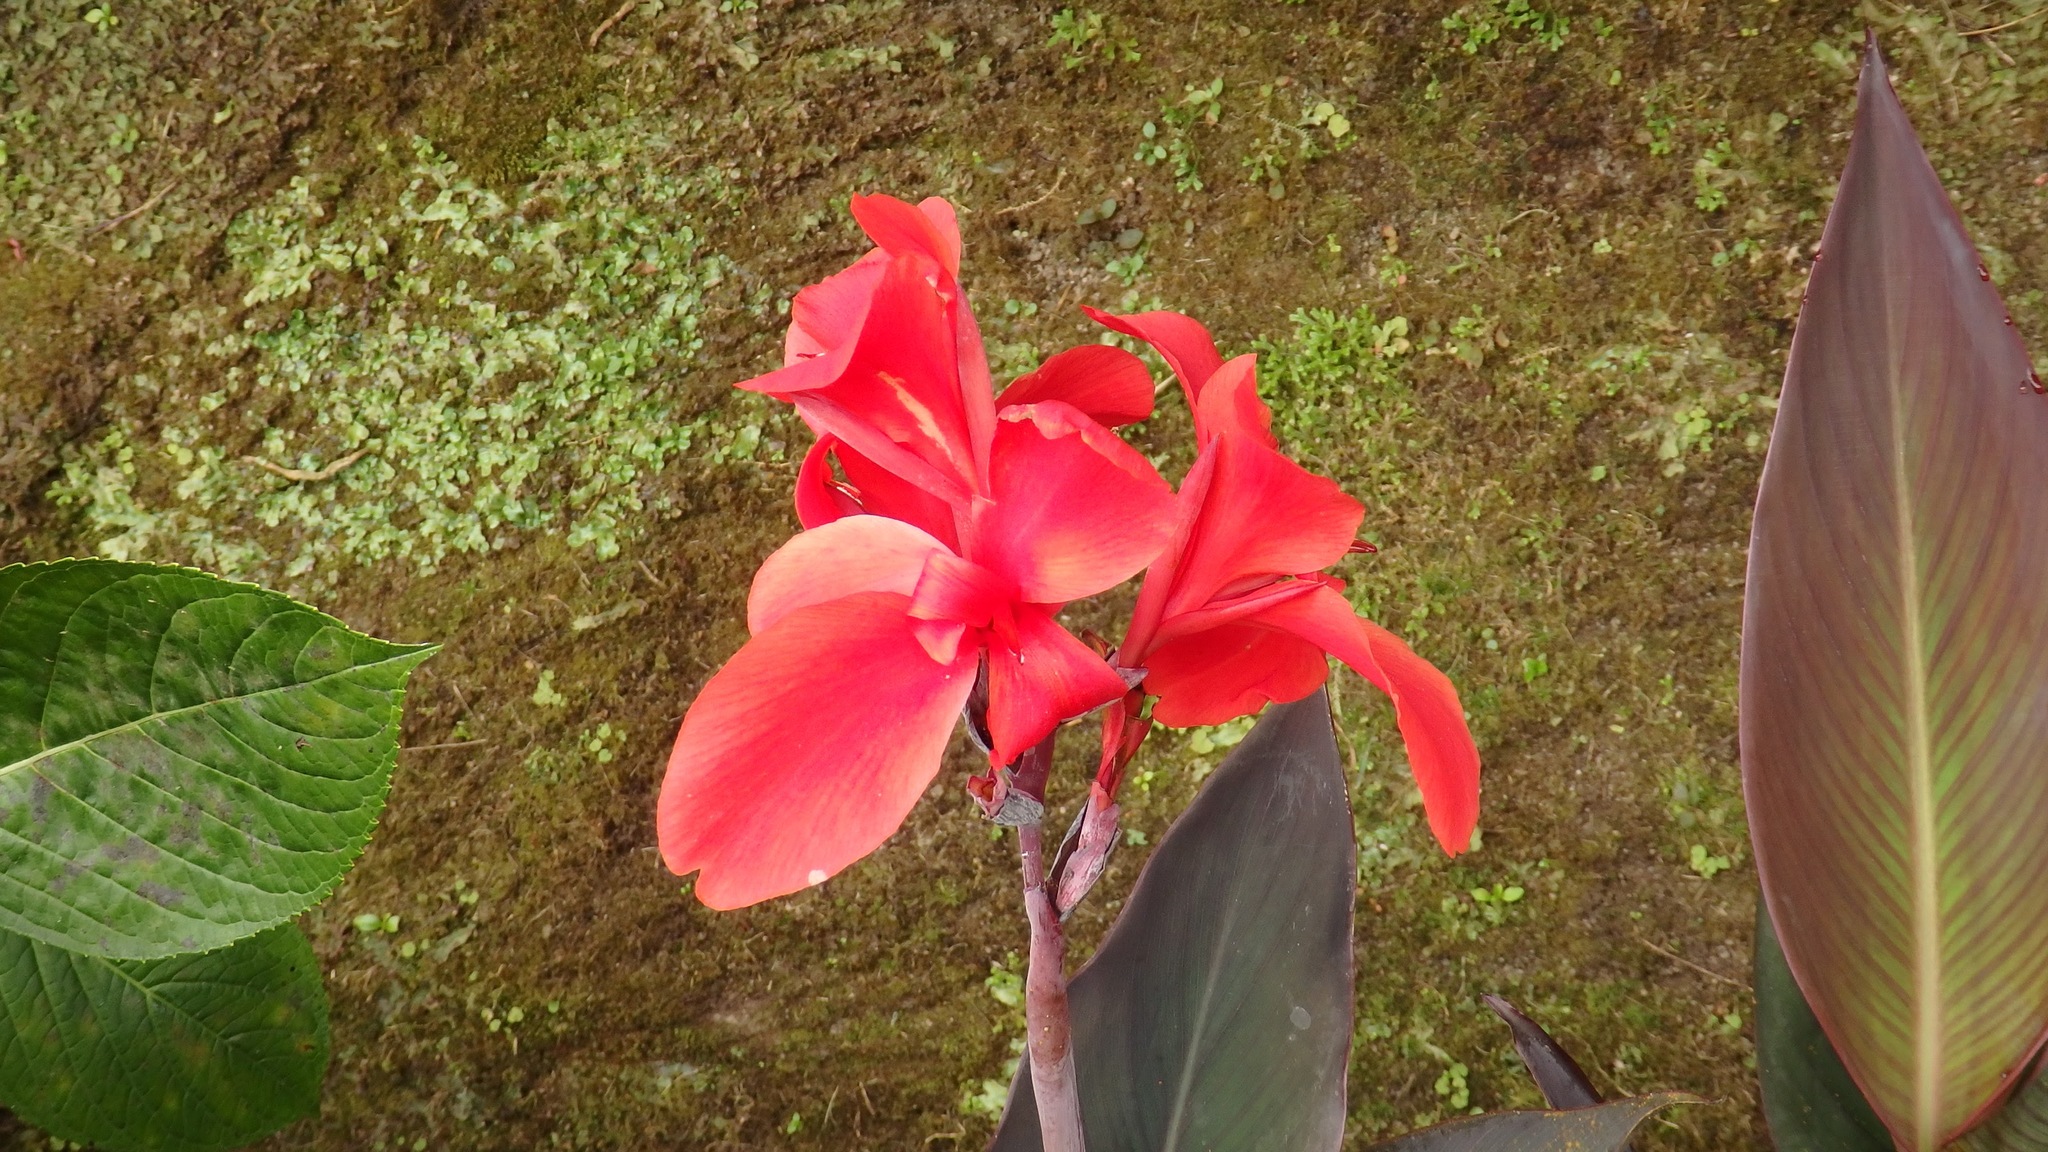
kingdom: Plantae
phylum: Tracheophyta
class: Liliopsida
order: Zingiberales
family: Cannaceae
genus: Canna
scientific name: Canna hybrida
